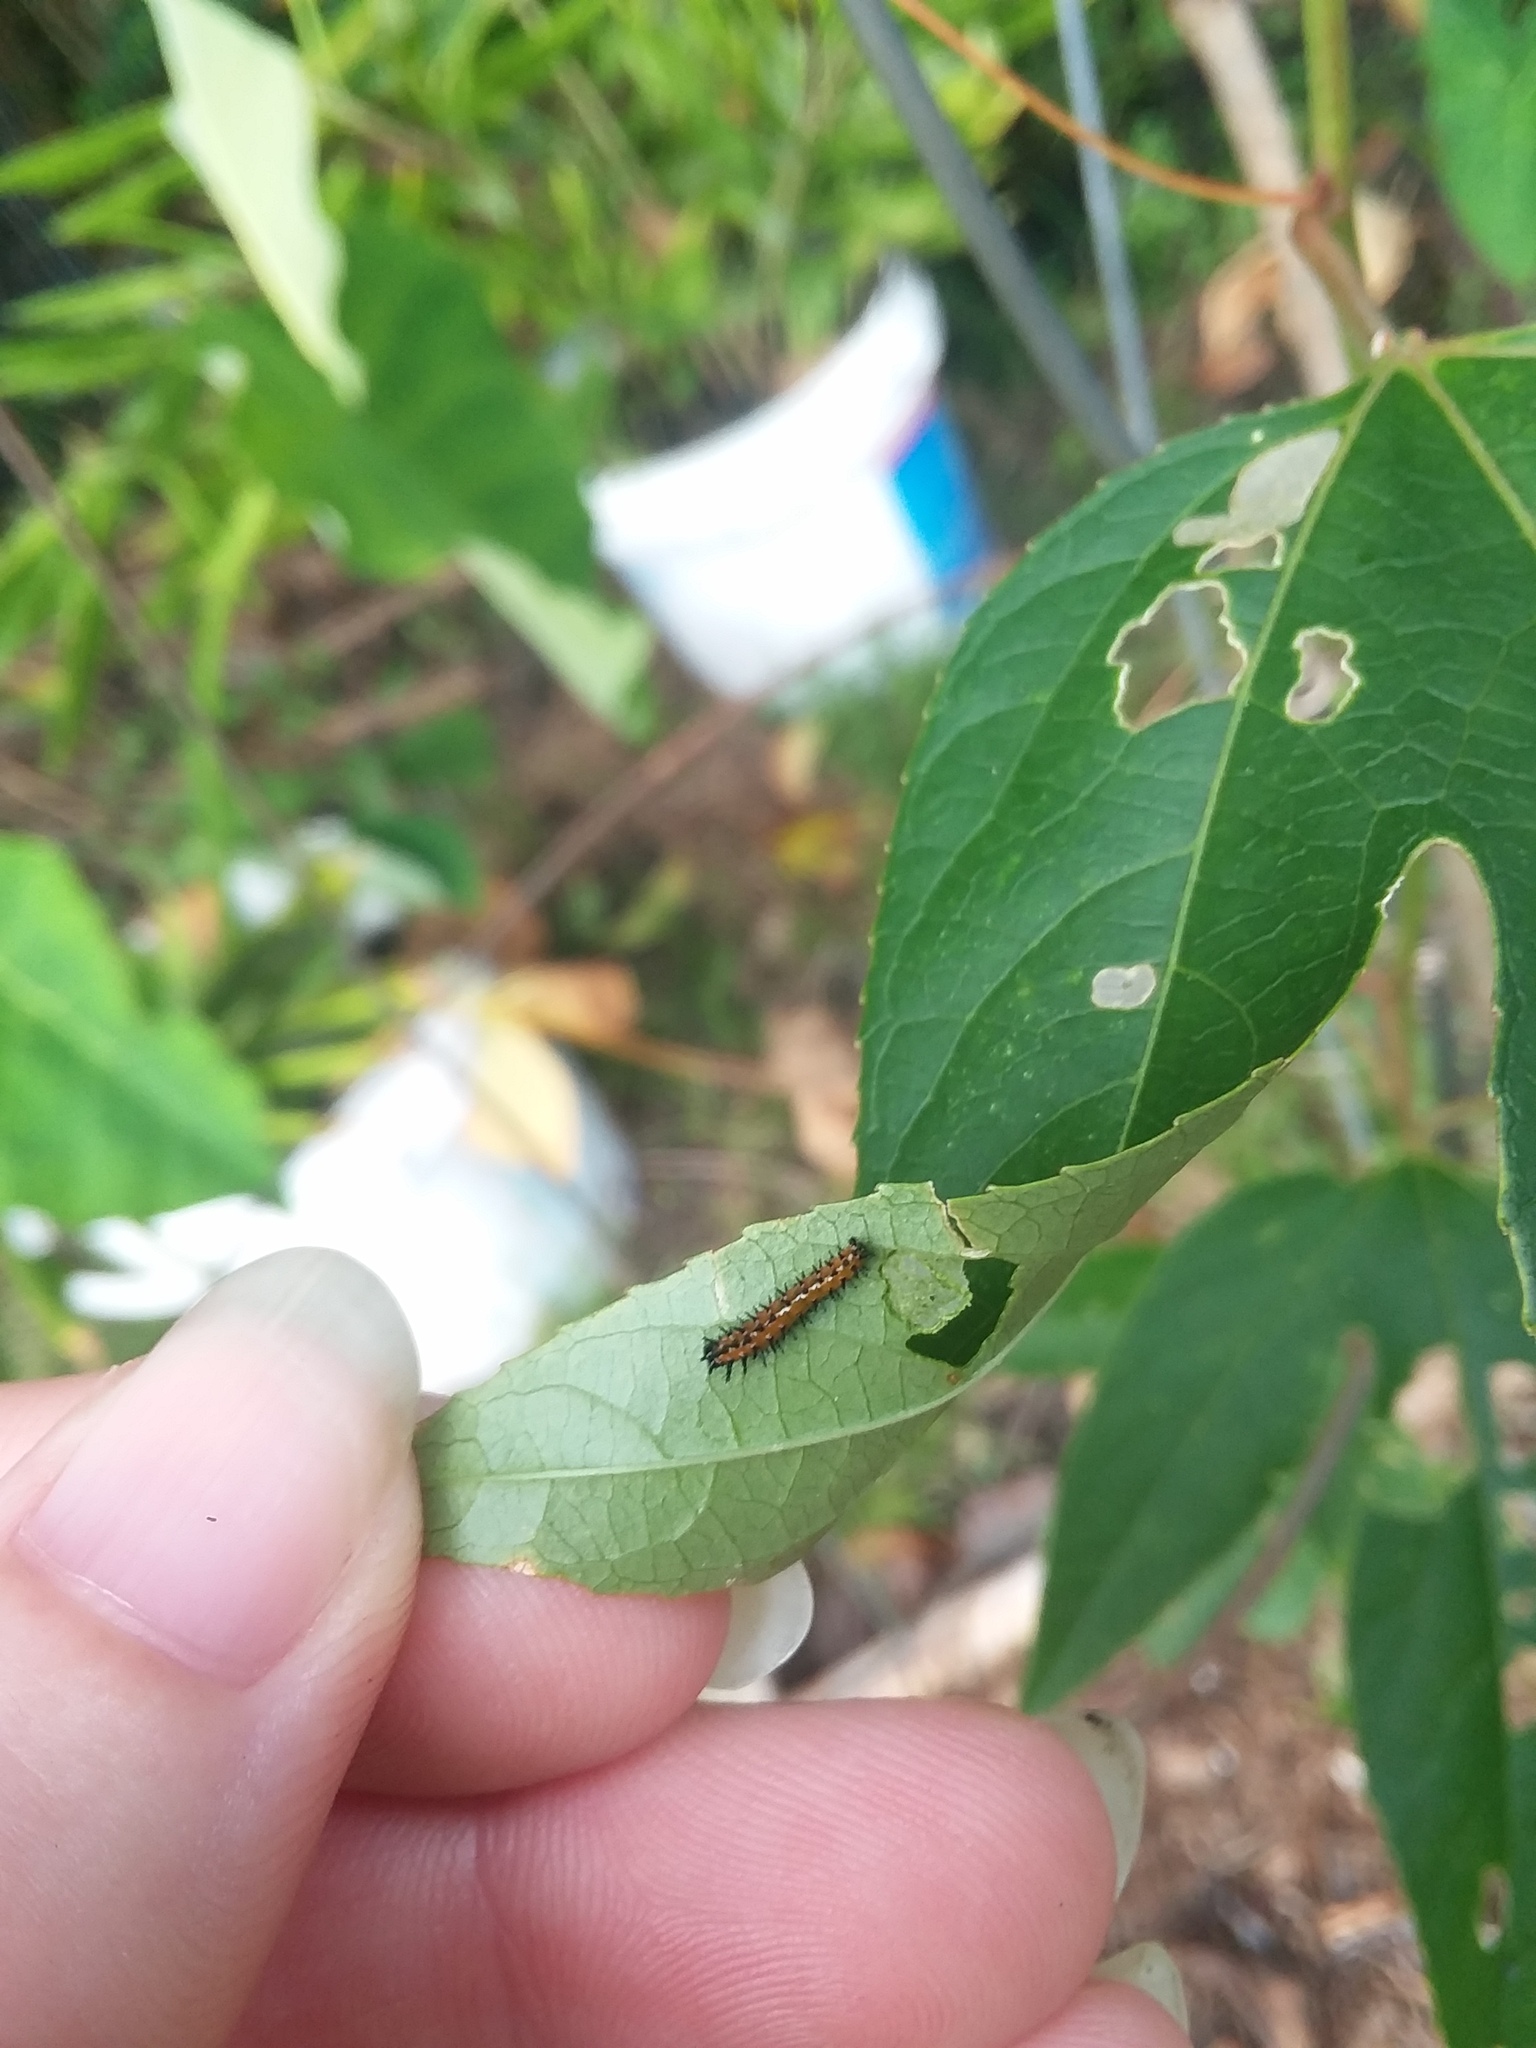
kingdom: Animalia
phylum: Arthropoda
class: Insecta
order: Lepidoptera
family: Nymphalidae
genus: Dione
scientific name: Dione vanillae
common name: Gulf fritillary
